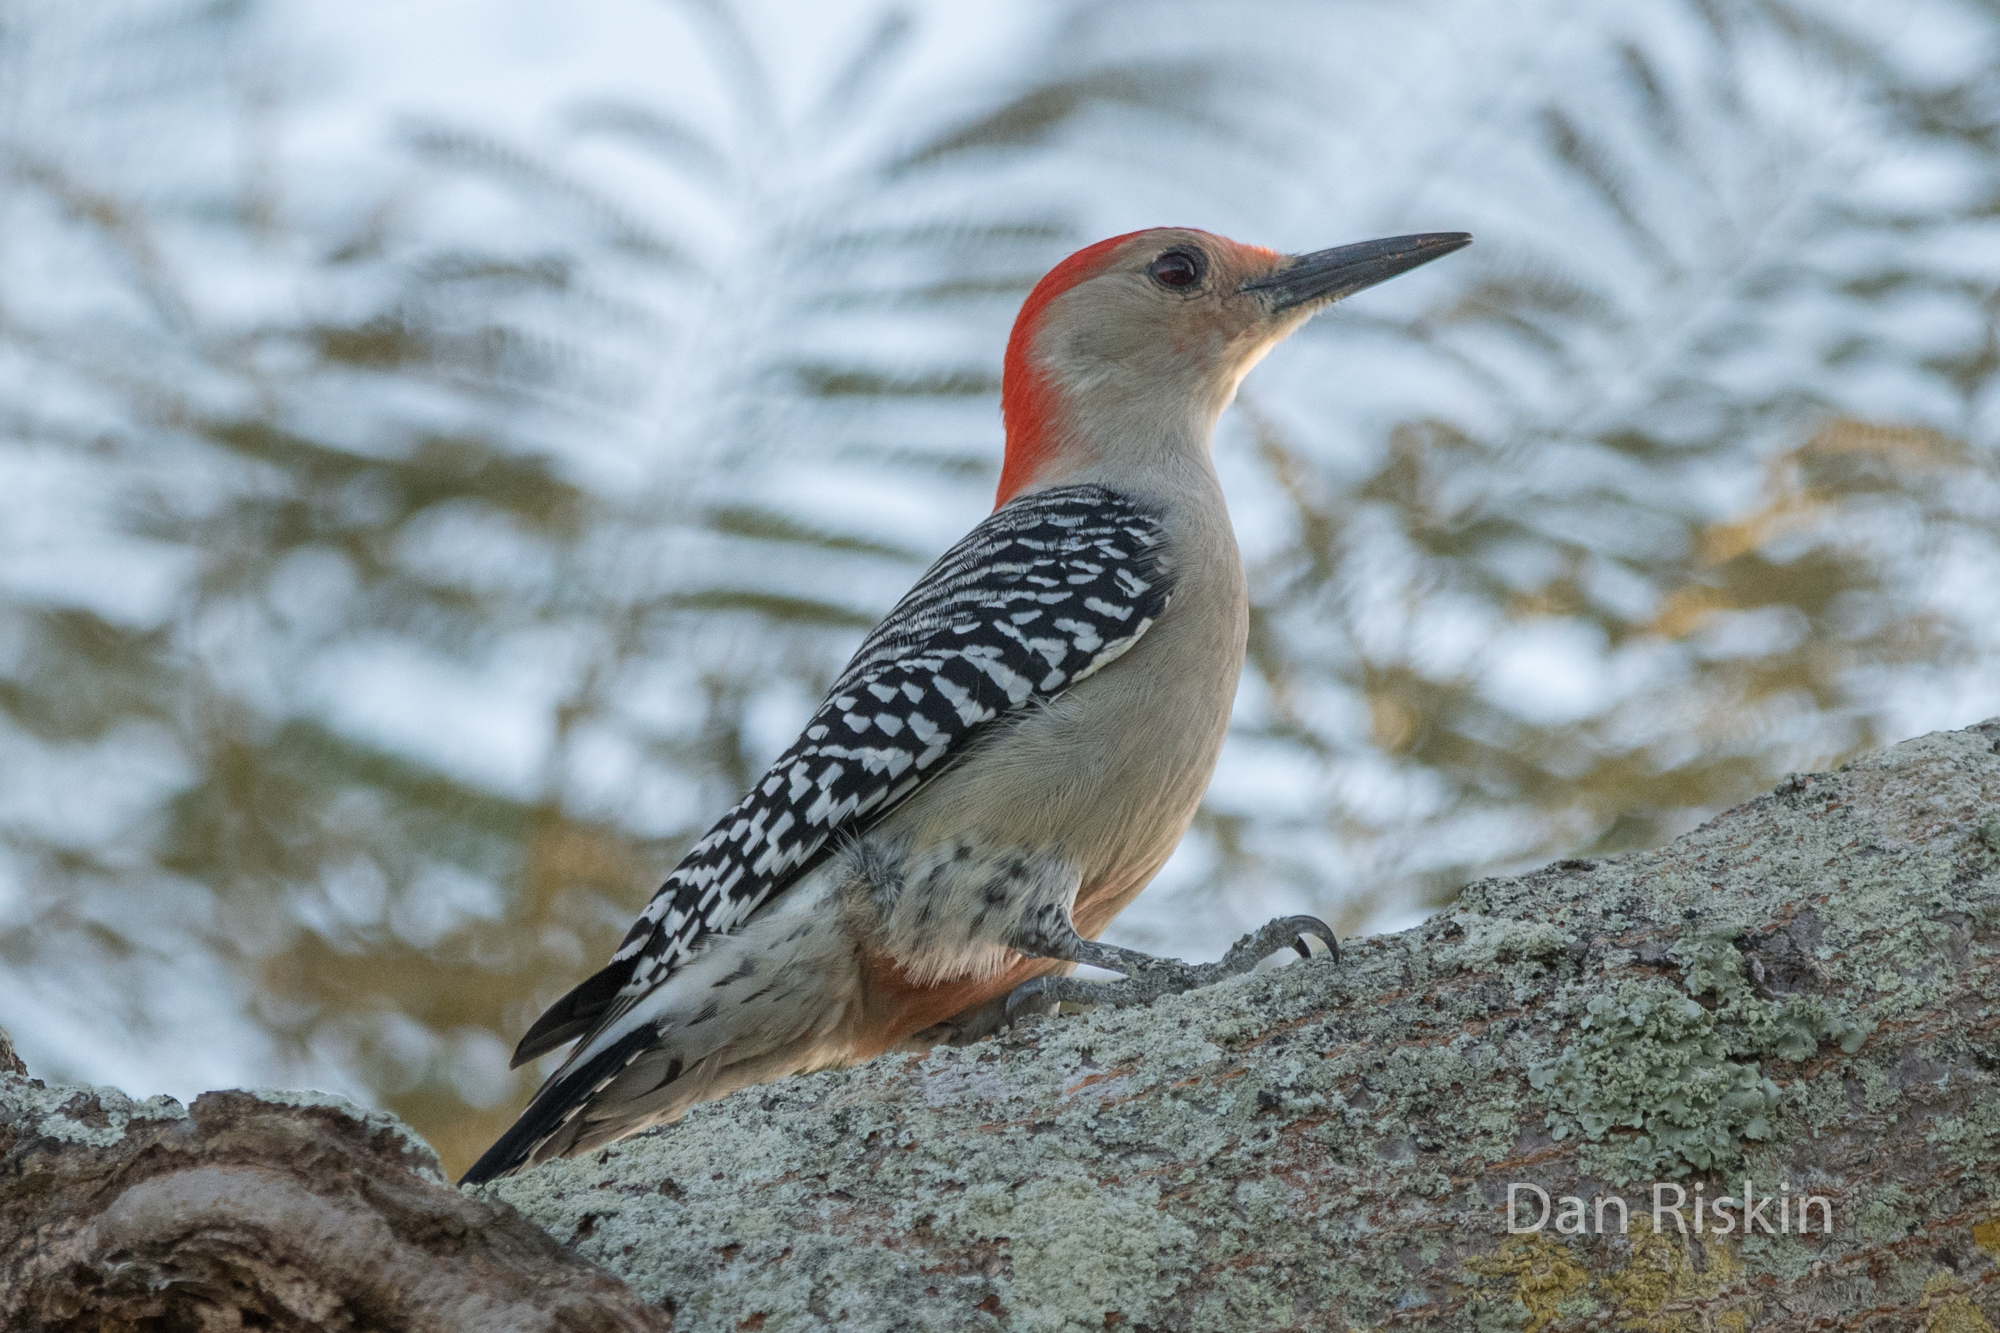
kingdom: Animalia
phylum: Chordata
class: Aves
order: Piciformes
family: Picidae
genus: Melanerpes
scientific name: Melanerpes carolinus
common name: Red-bellied woodpecker
